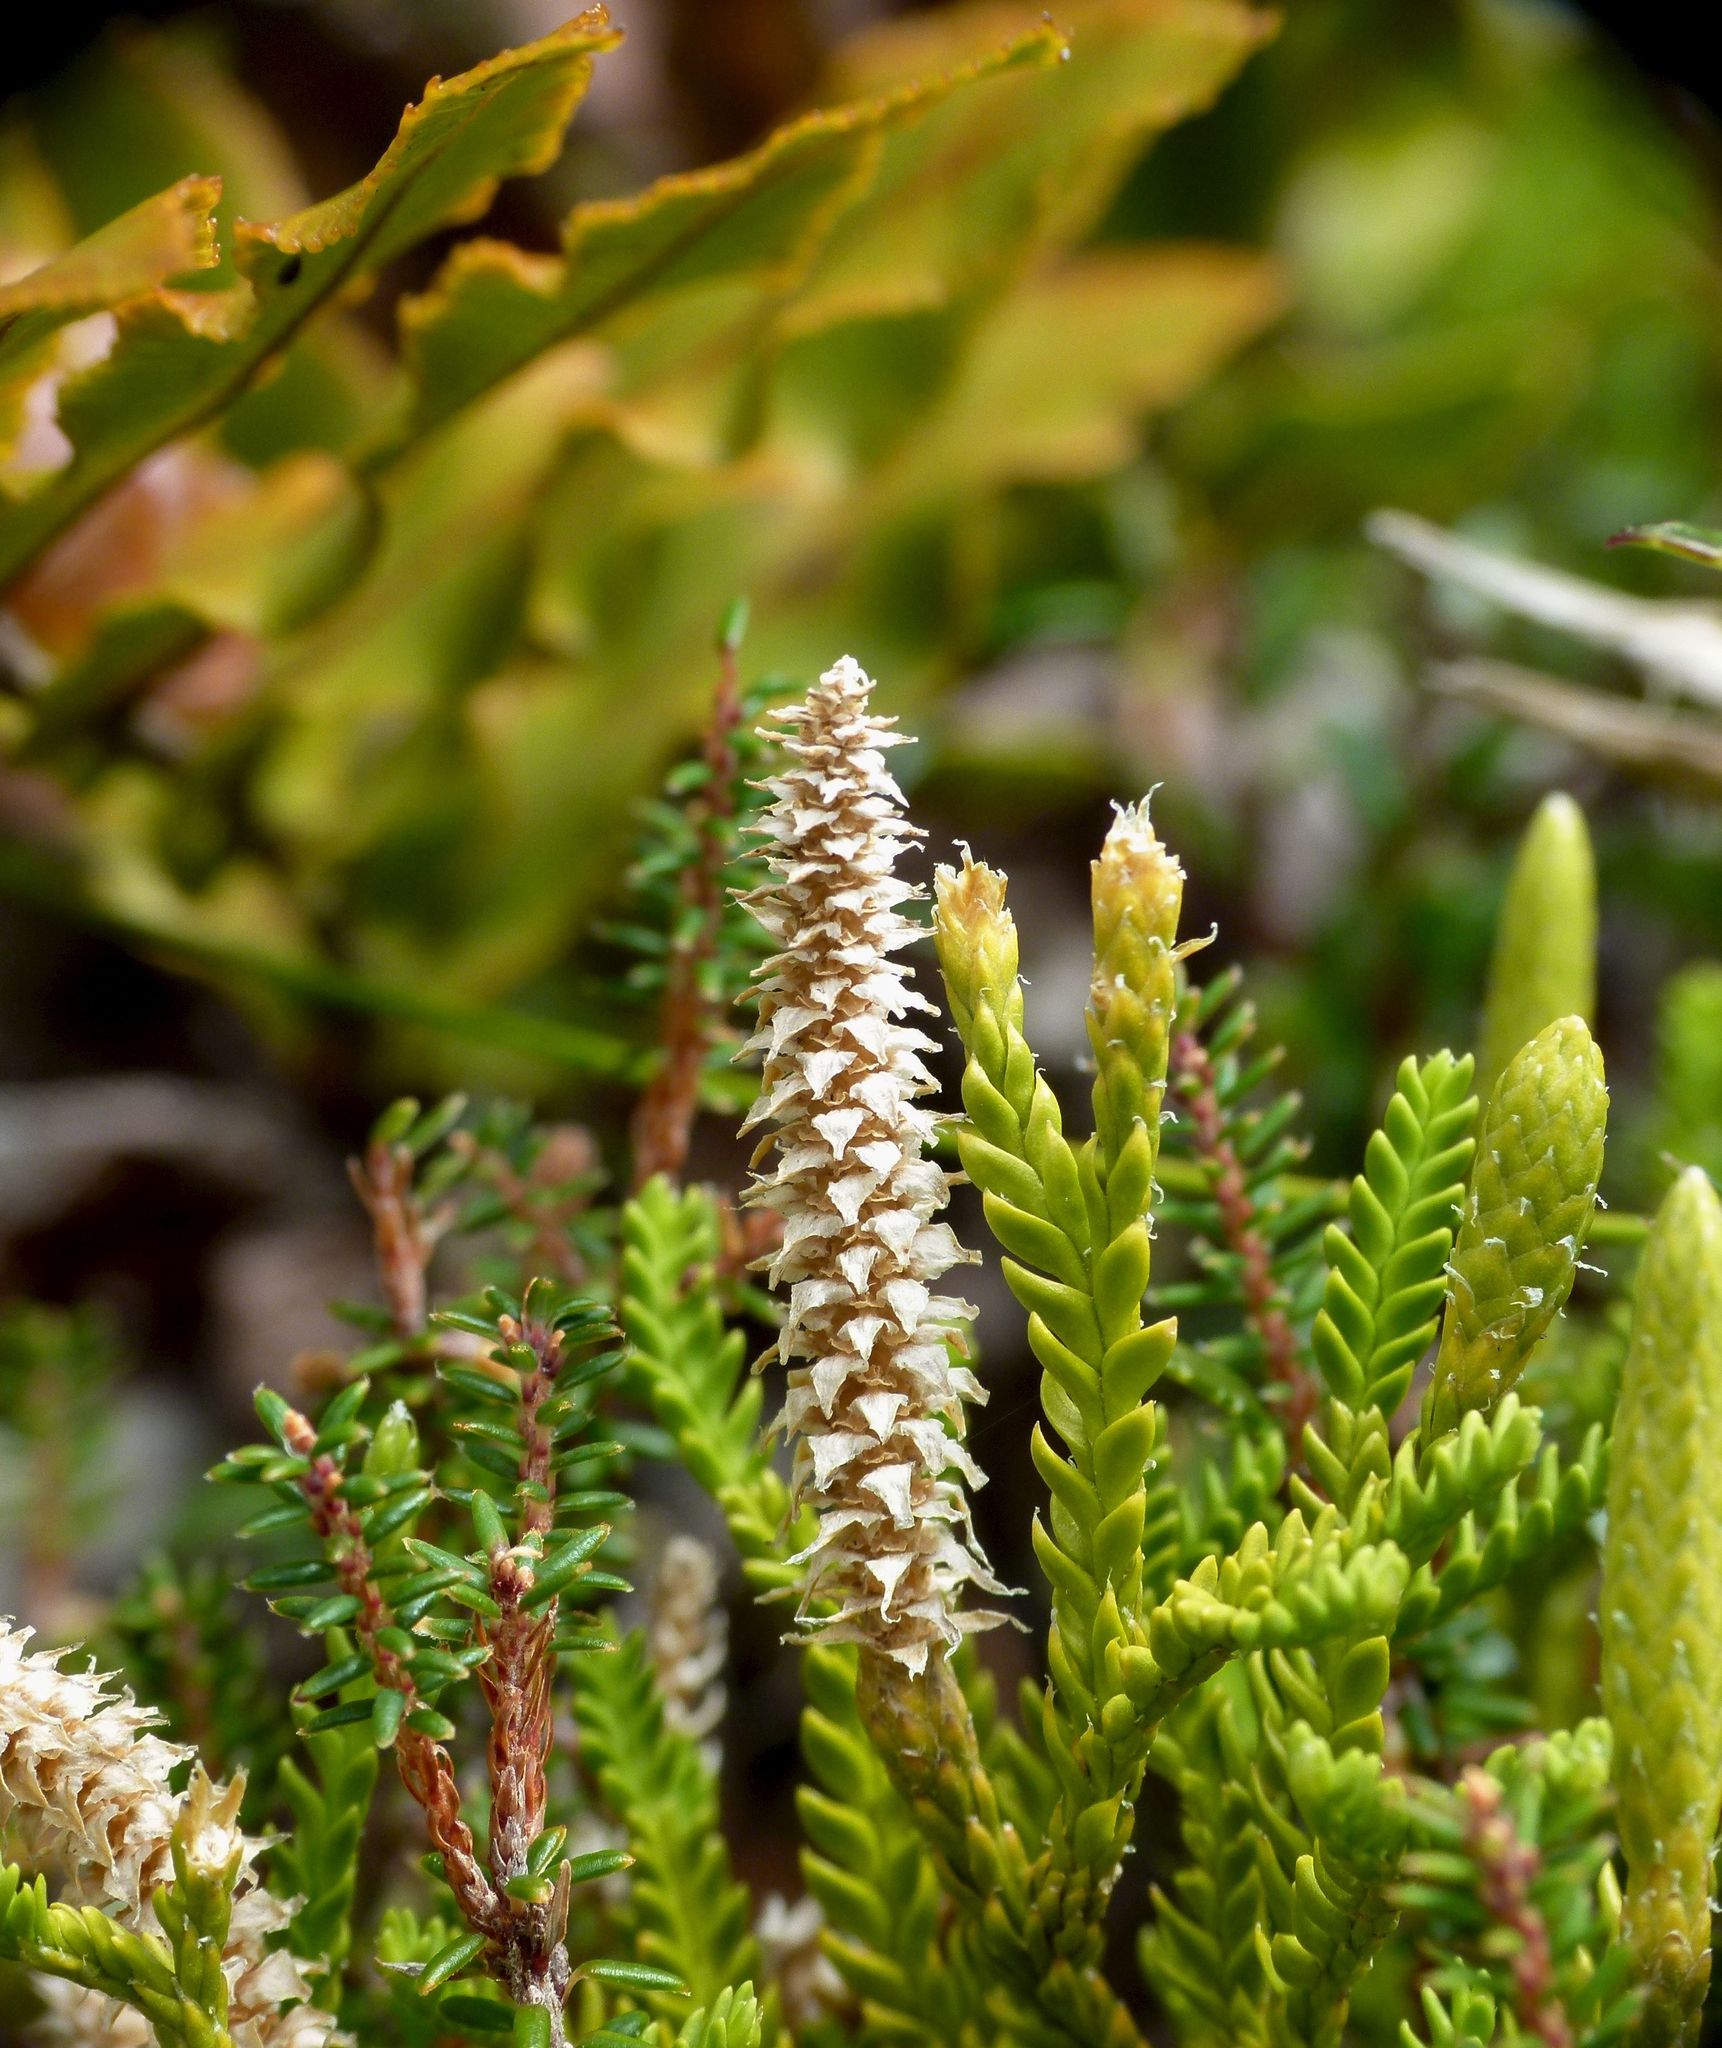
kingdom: Plantae
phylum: Tracheophyta
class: Lycopodiopsida
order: Lycopodiales
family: Lycopodiaceae
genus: Diphasium
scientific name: Diphasium scariosum
